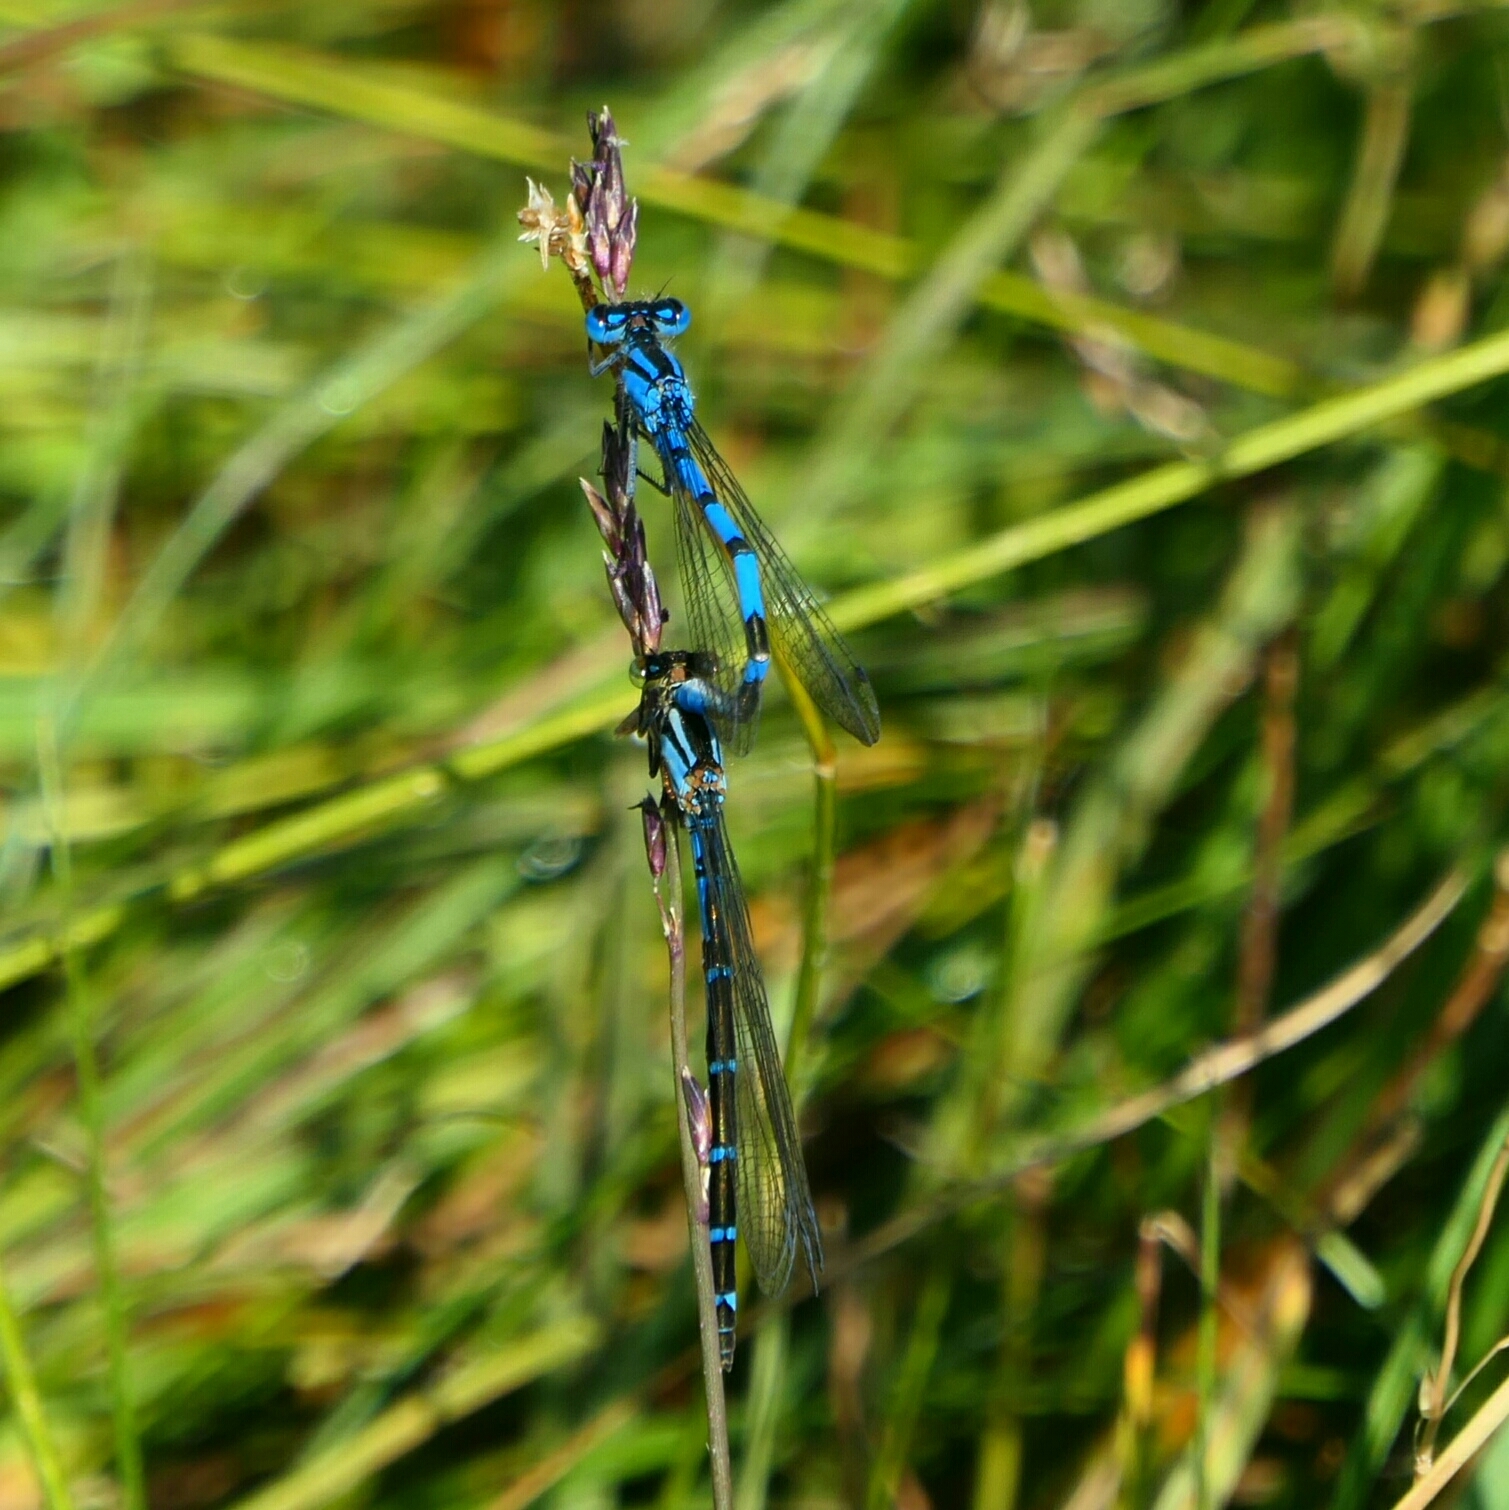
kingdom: Animalia
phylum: Arthropoda
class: Insecta
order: Odonata
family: Coenagrionidae
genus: Enallagma
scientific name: Enallagma cyathigerum
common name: Common blue damselfly
